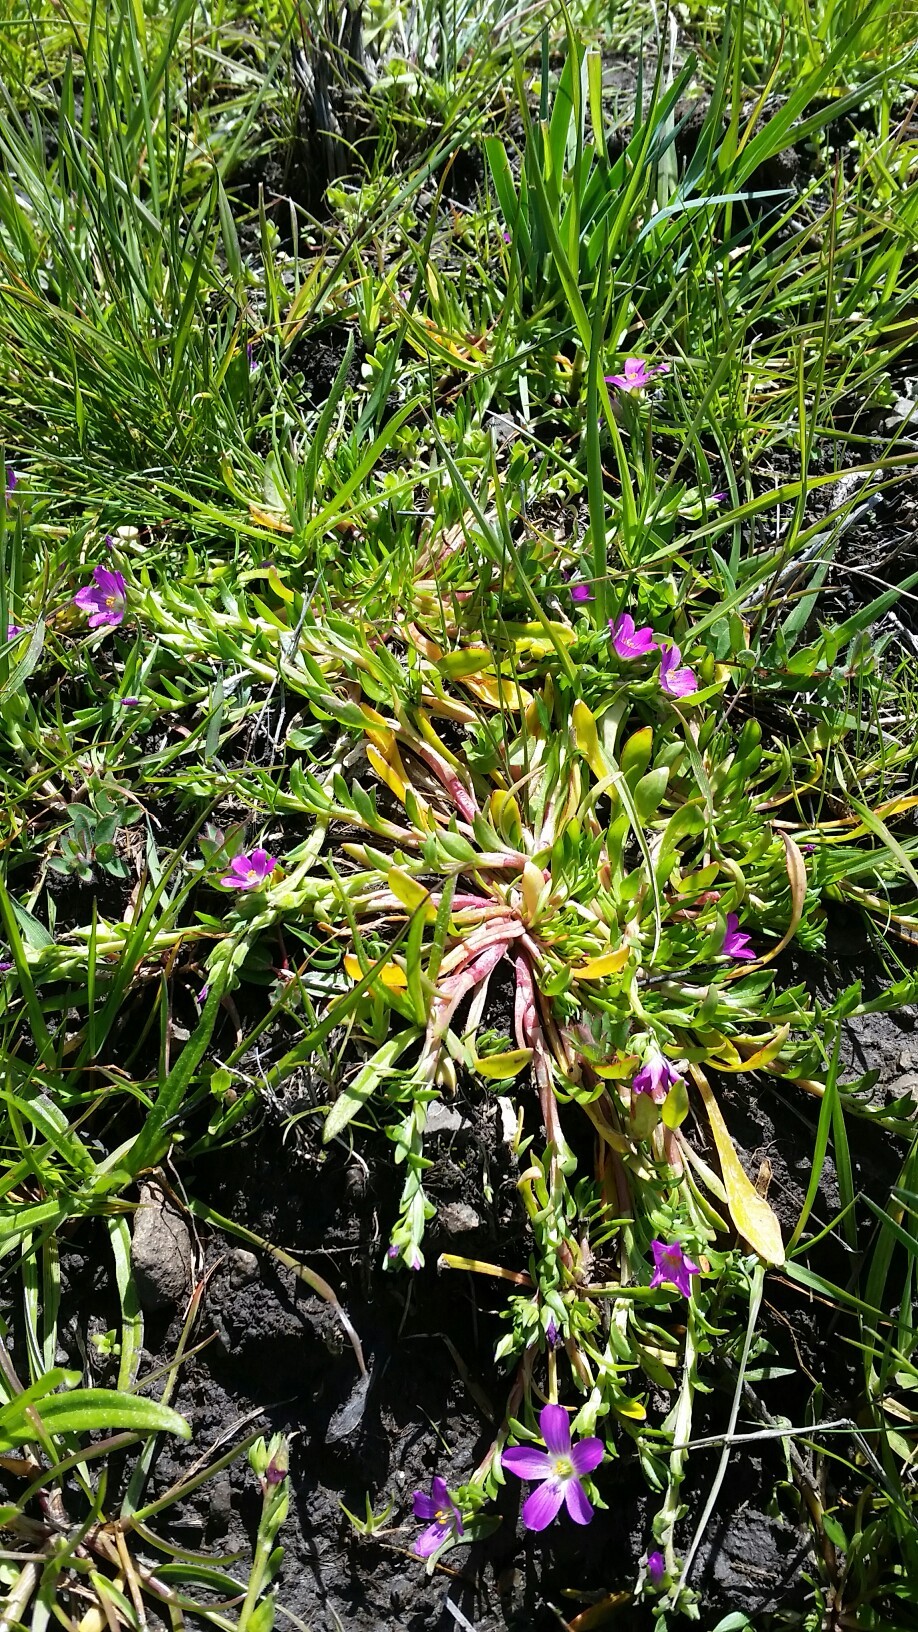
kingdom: Plantae
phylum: Tracheophyta
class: Magnoliopsida
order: Caryophyllales
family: Montiaceae
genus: Calandrinia
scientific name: Calandrinia menziesii
